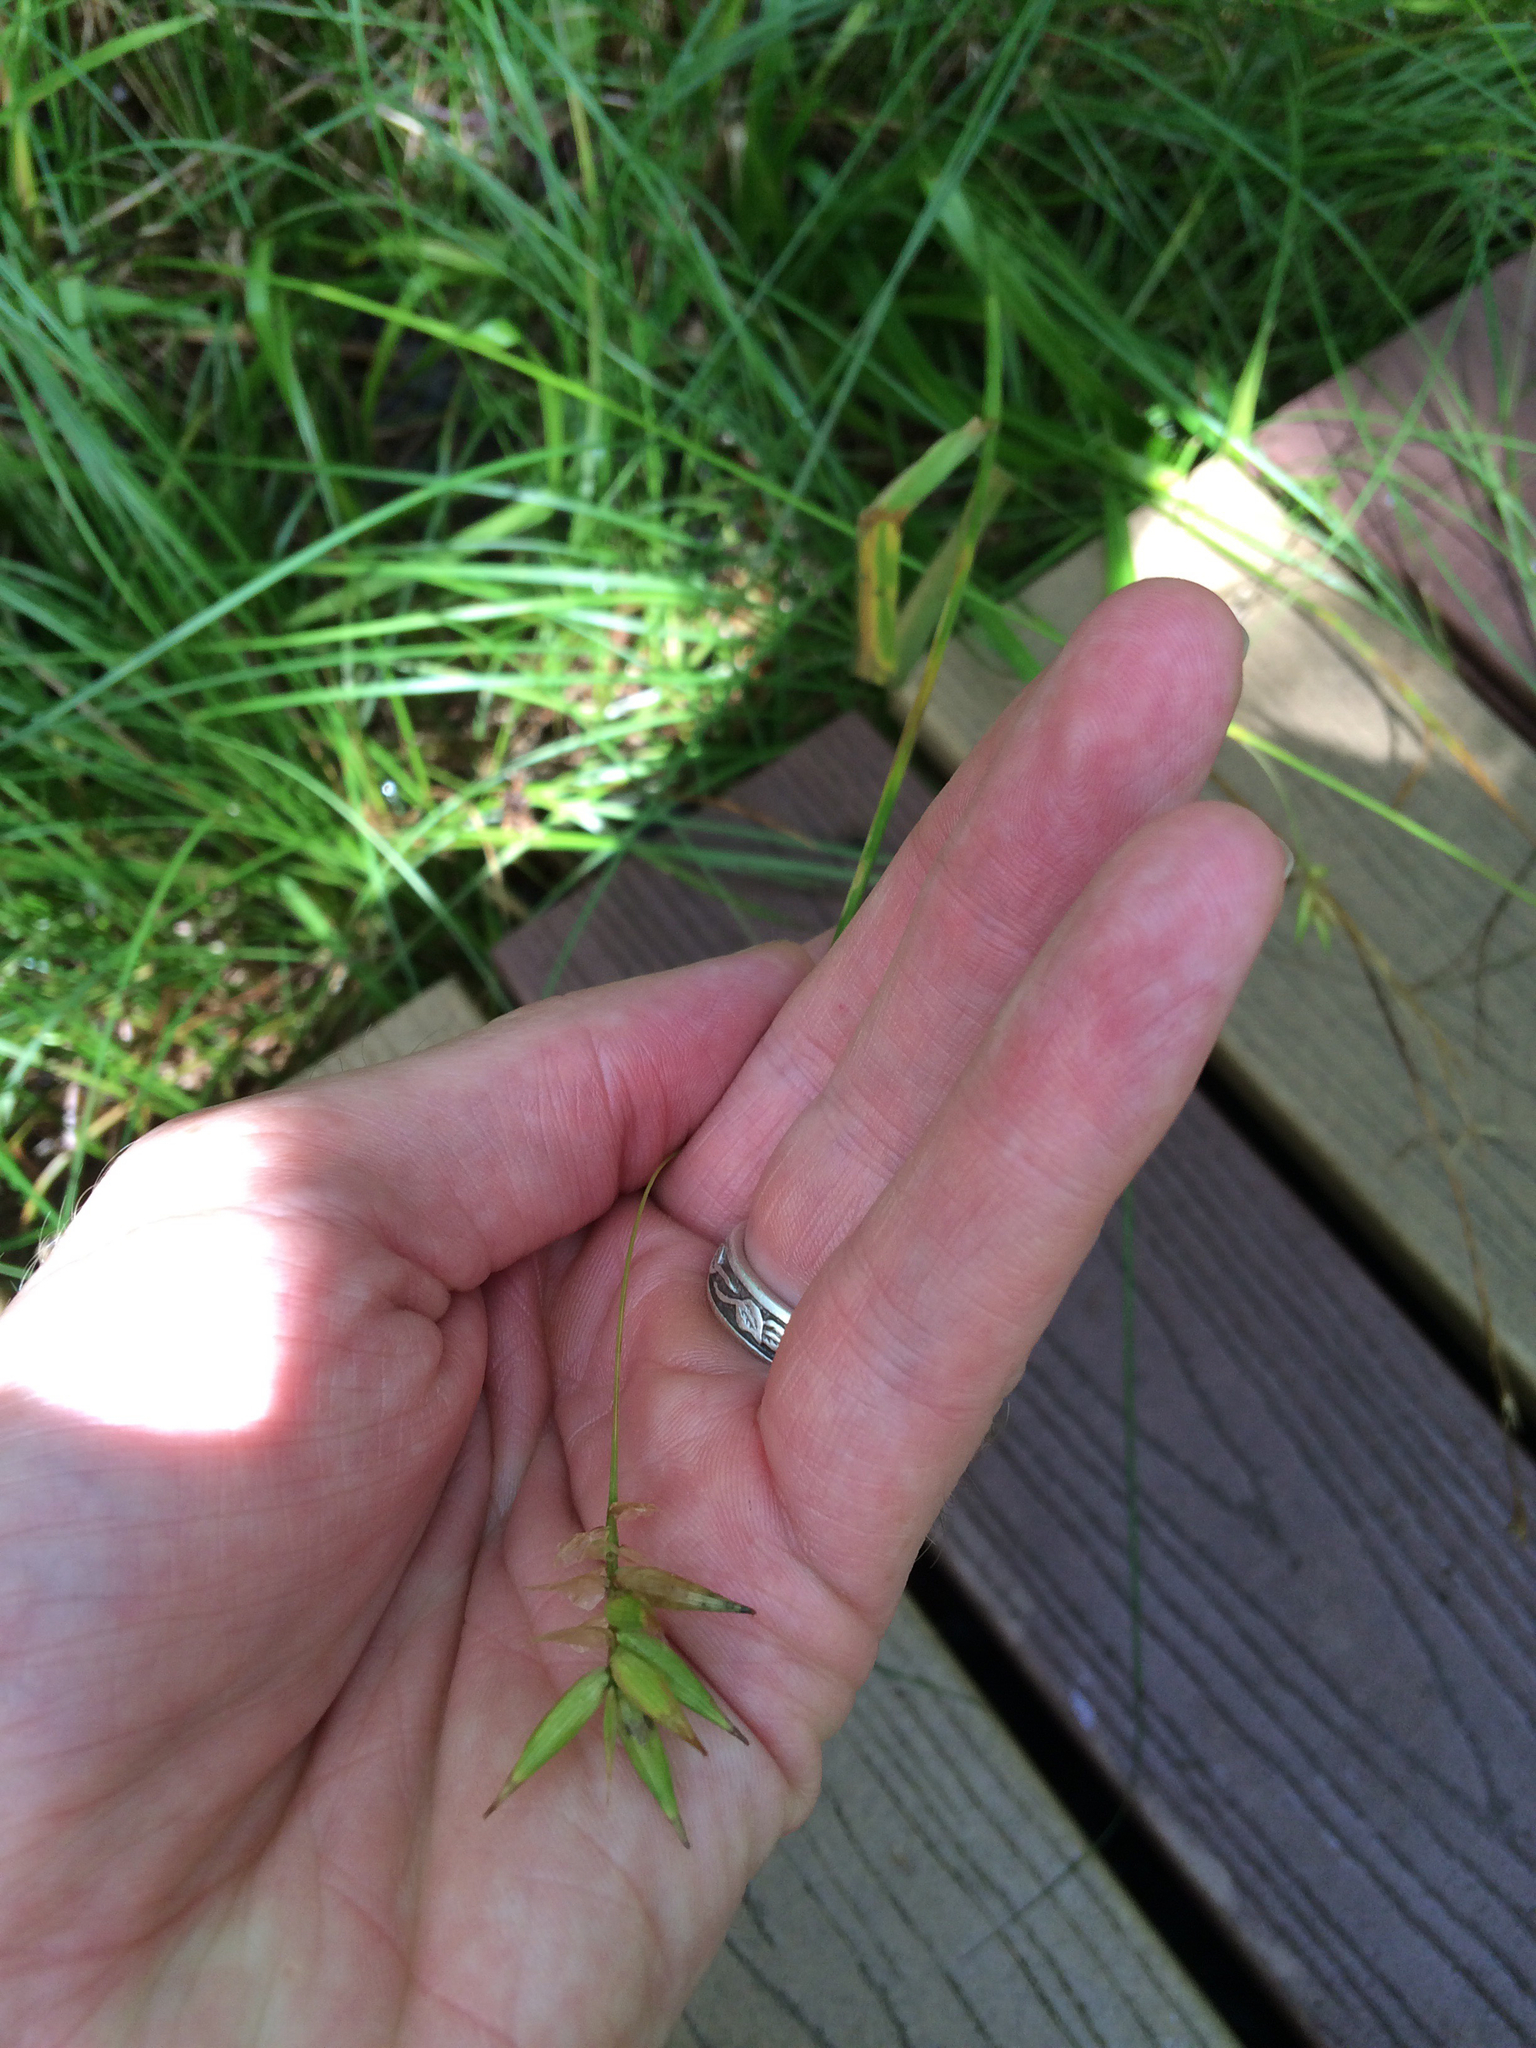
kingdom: Plantae
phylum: Tracheophyta
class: Liliopsida
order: Poales
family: Cyperaceae
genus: Carex
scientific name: Carex folliculata
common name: Northern long sedge
